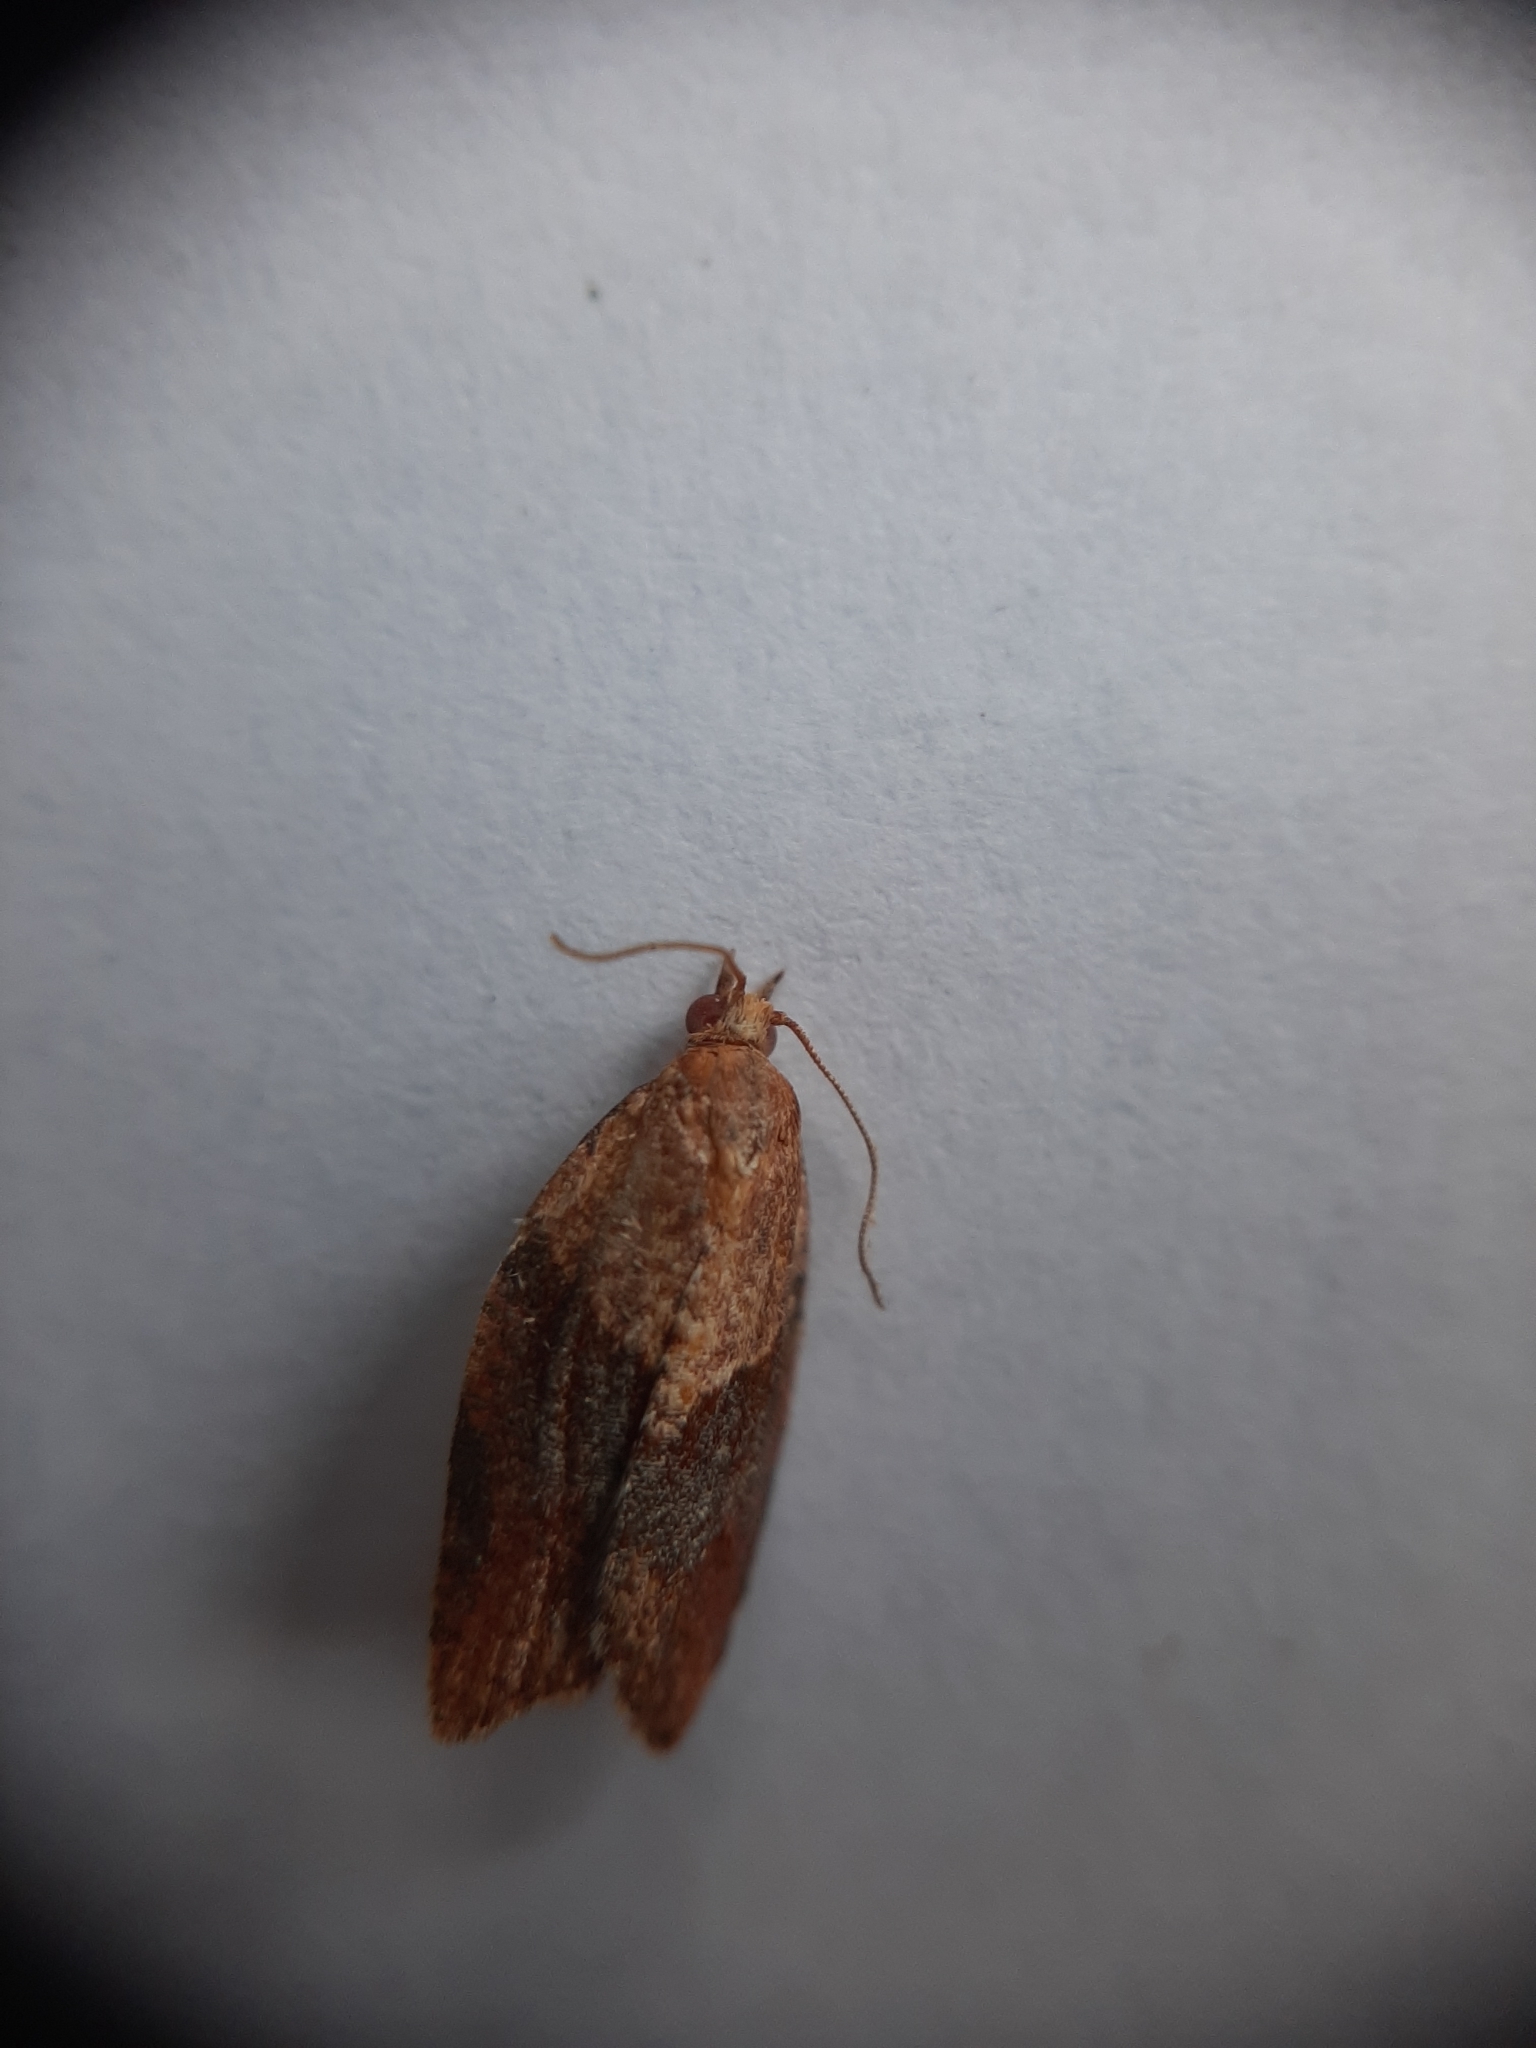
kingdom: Animalia
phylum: Arthropoda
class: Insecta
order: Lepidoptera
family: Tortricidae
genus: Epiphyas
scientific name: Epiphyas postvittana
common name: Light brown apple moth
